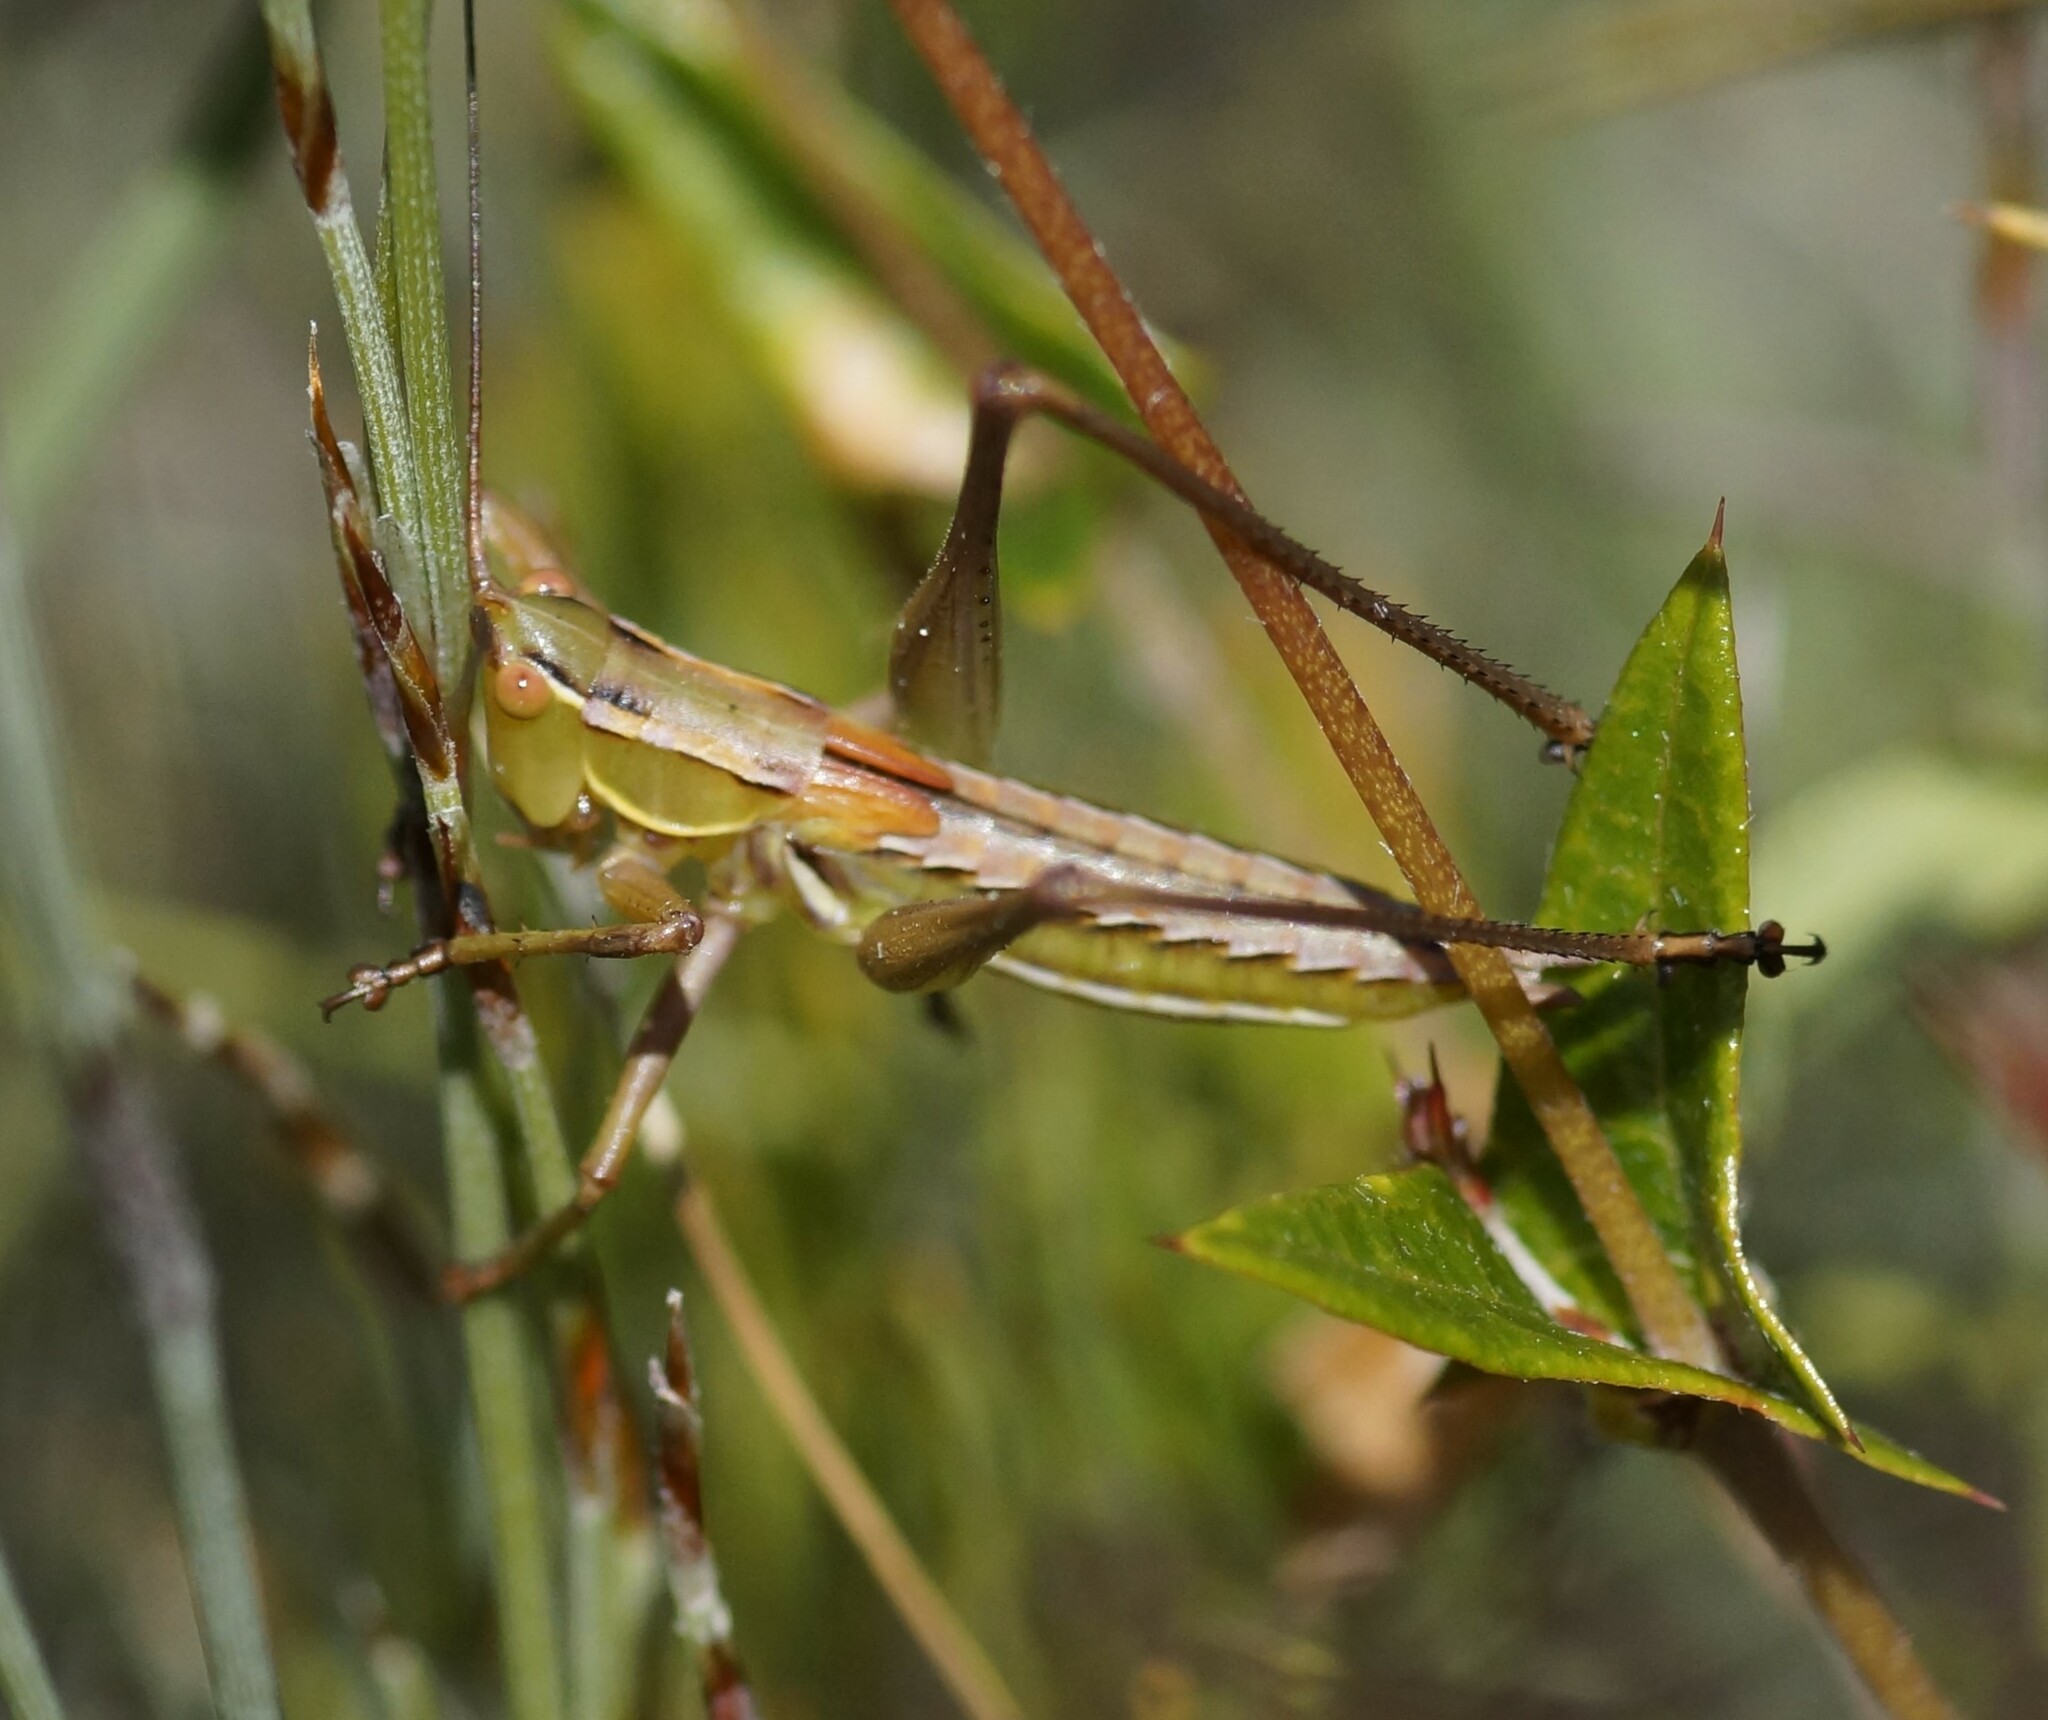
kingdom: Animalia
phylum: Arthropoda
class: Insecta
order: Orthoptera
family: Tettigoniidae
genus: Metaballus
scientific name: Metaballus sagaeformis
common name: Adelaide marauding katydid
